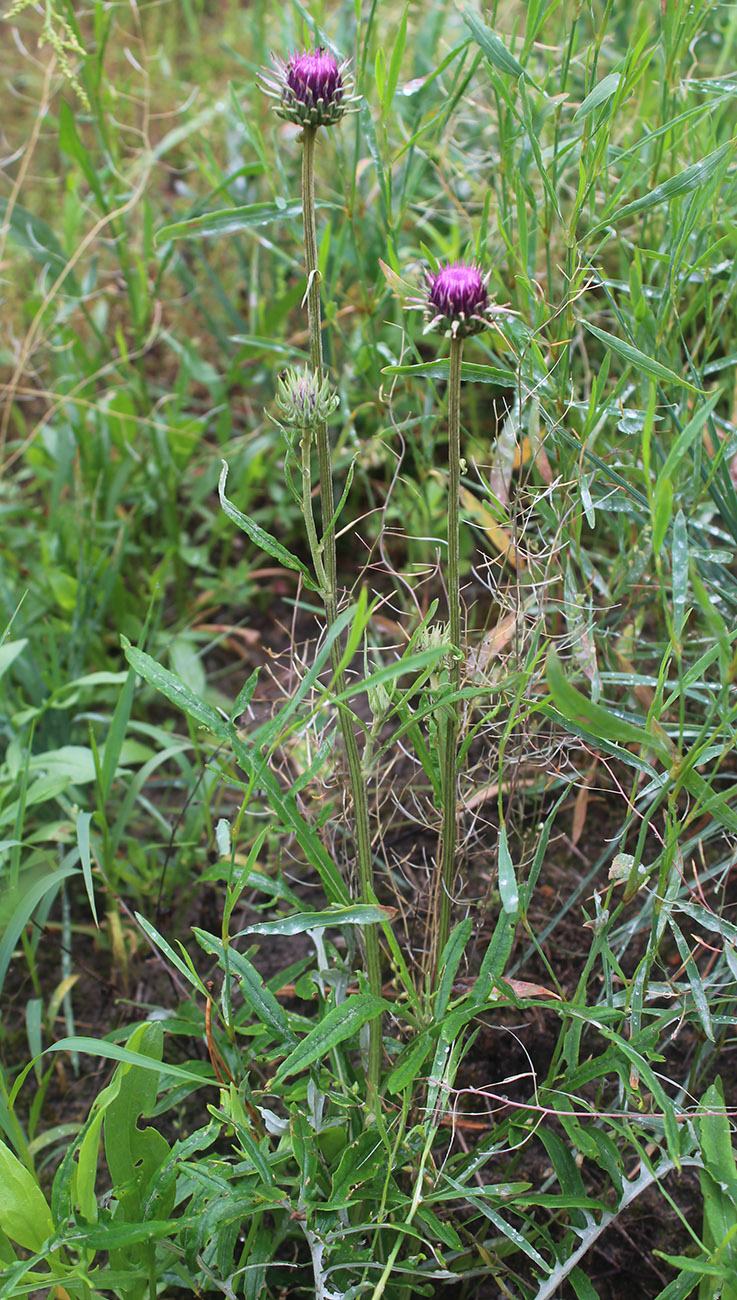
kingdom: Plantae
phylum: Tracheophyta
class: Magnoliopsida
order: Asterales
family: Asteraceae
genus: Jurinea
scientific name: Jurinea cyanoides
